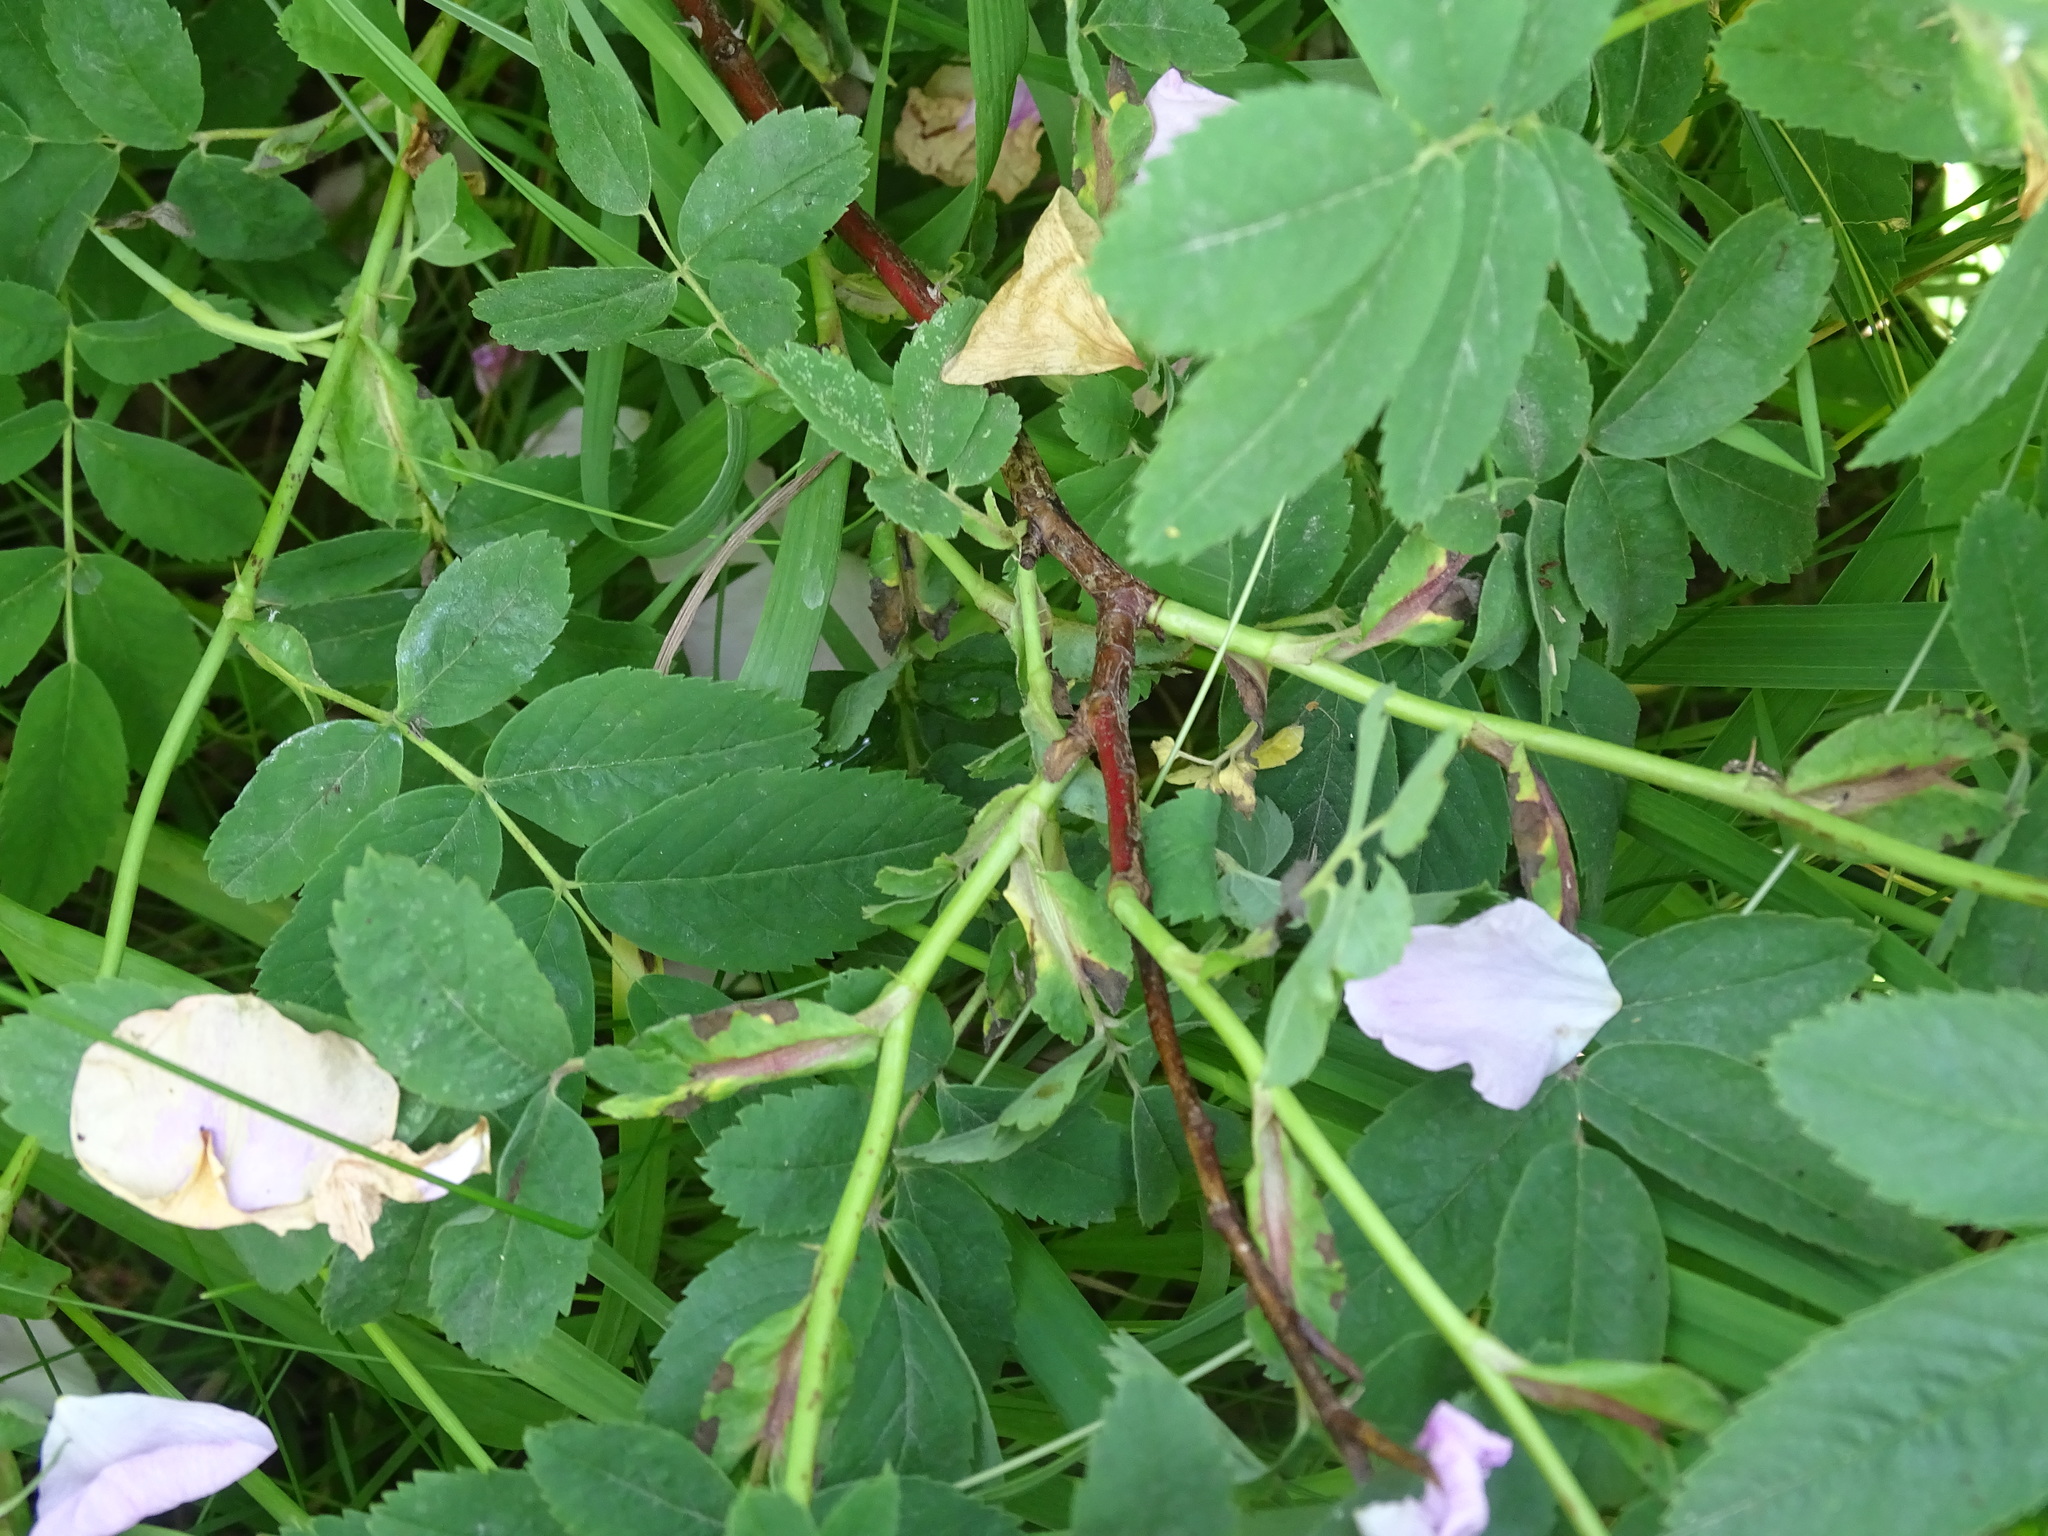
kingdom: Plantae
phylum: Tracheophyta
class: Magnoliopsida
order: Rosales
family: Rosaceae
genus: Rosa
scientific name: Rosa blanda
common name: Smooth rose
